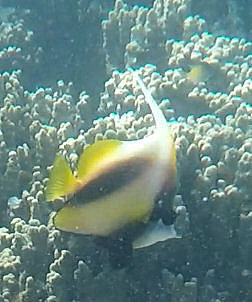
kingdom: Animalia
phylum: Chordata
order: Perciformes
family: Chaetodontidae
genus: Heniochus
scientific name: Heniochus intermedius
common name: Red sea bannerfish
